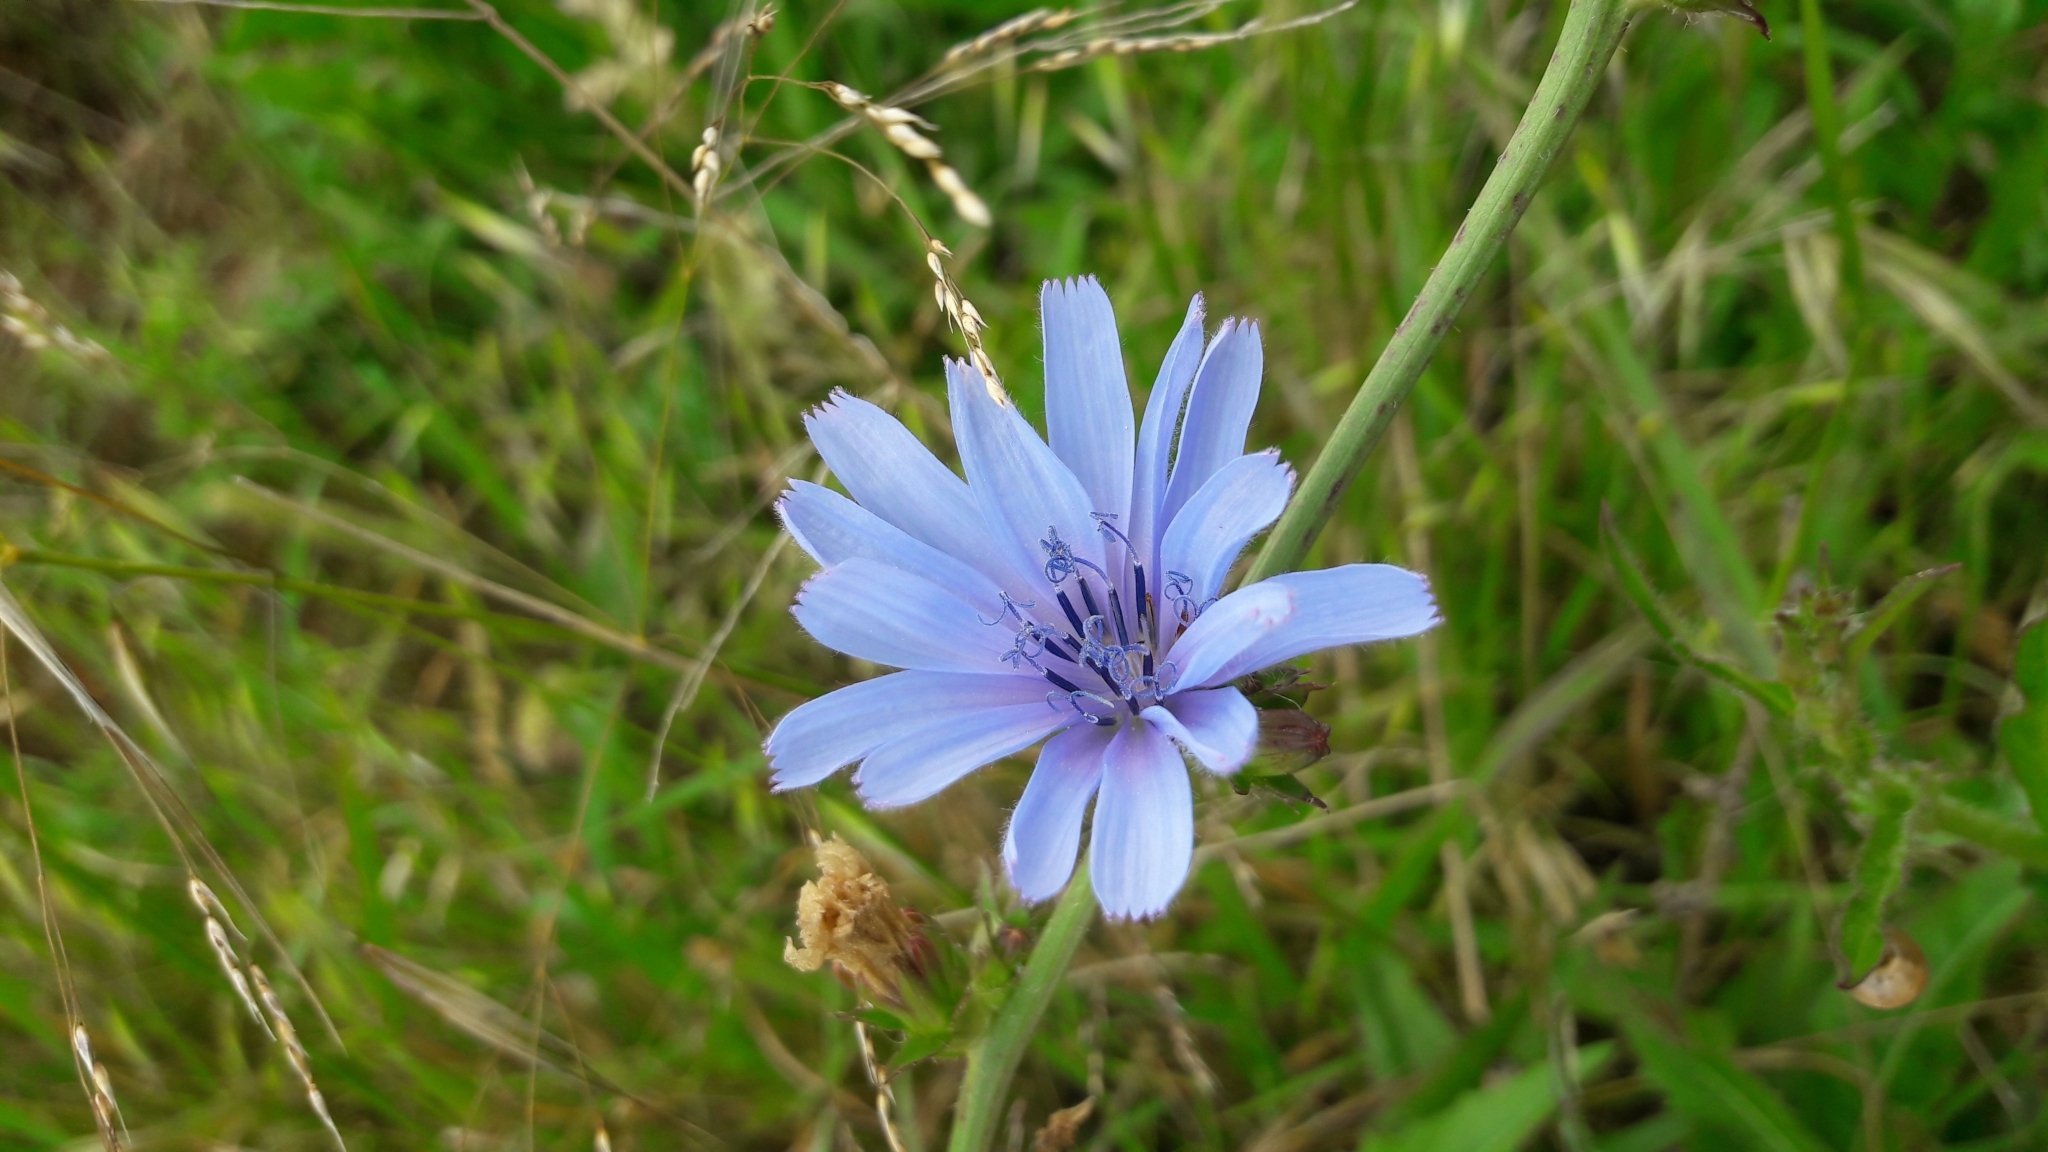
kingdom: Plantae
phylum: Tracheophyta
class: Magnoliopsida
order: Asterales
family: Asteraceae
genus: Cichorium
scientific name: Cichorium intybus
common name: Chicory
